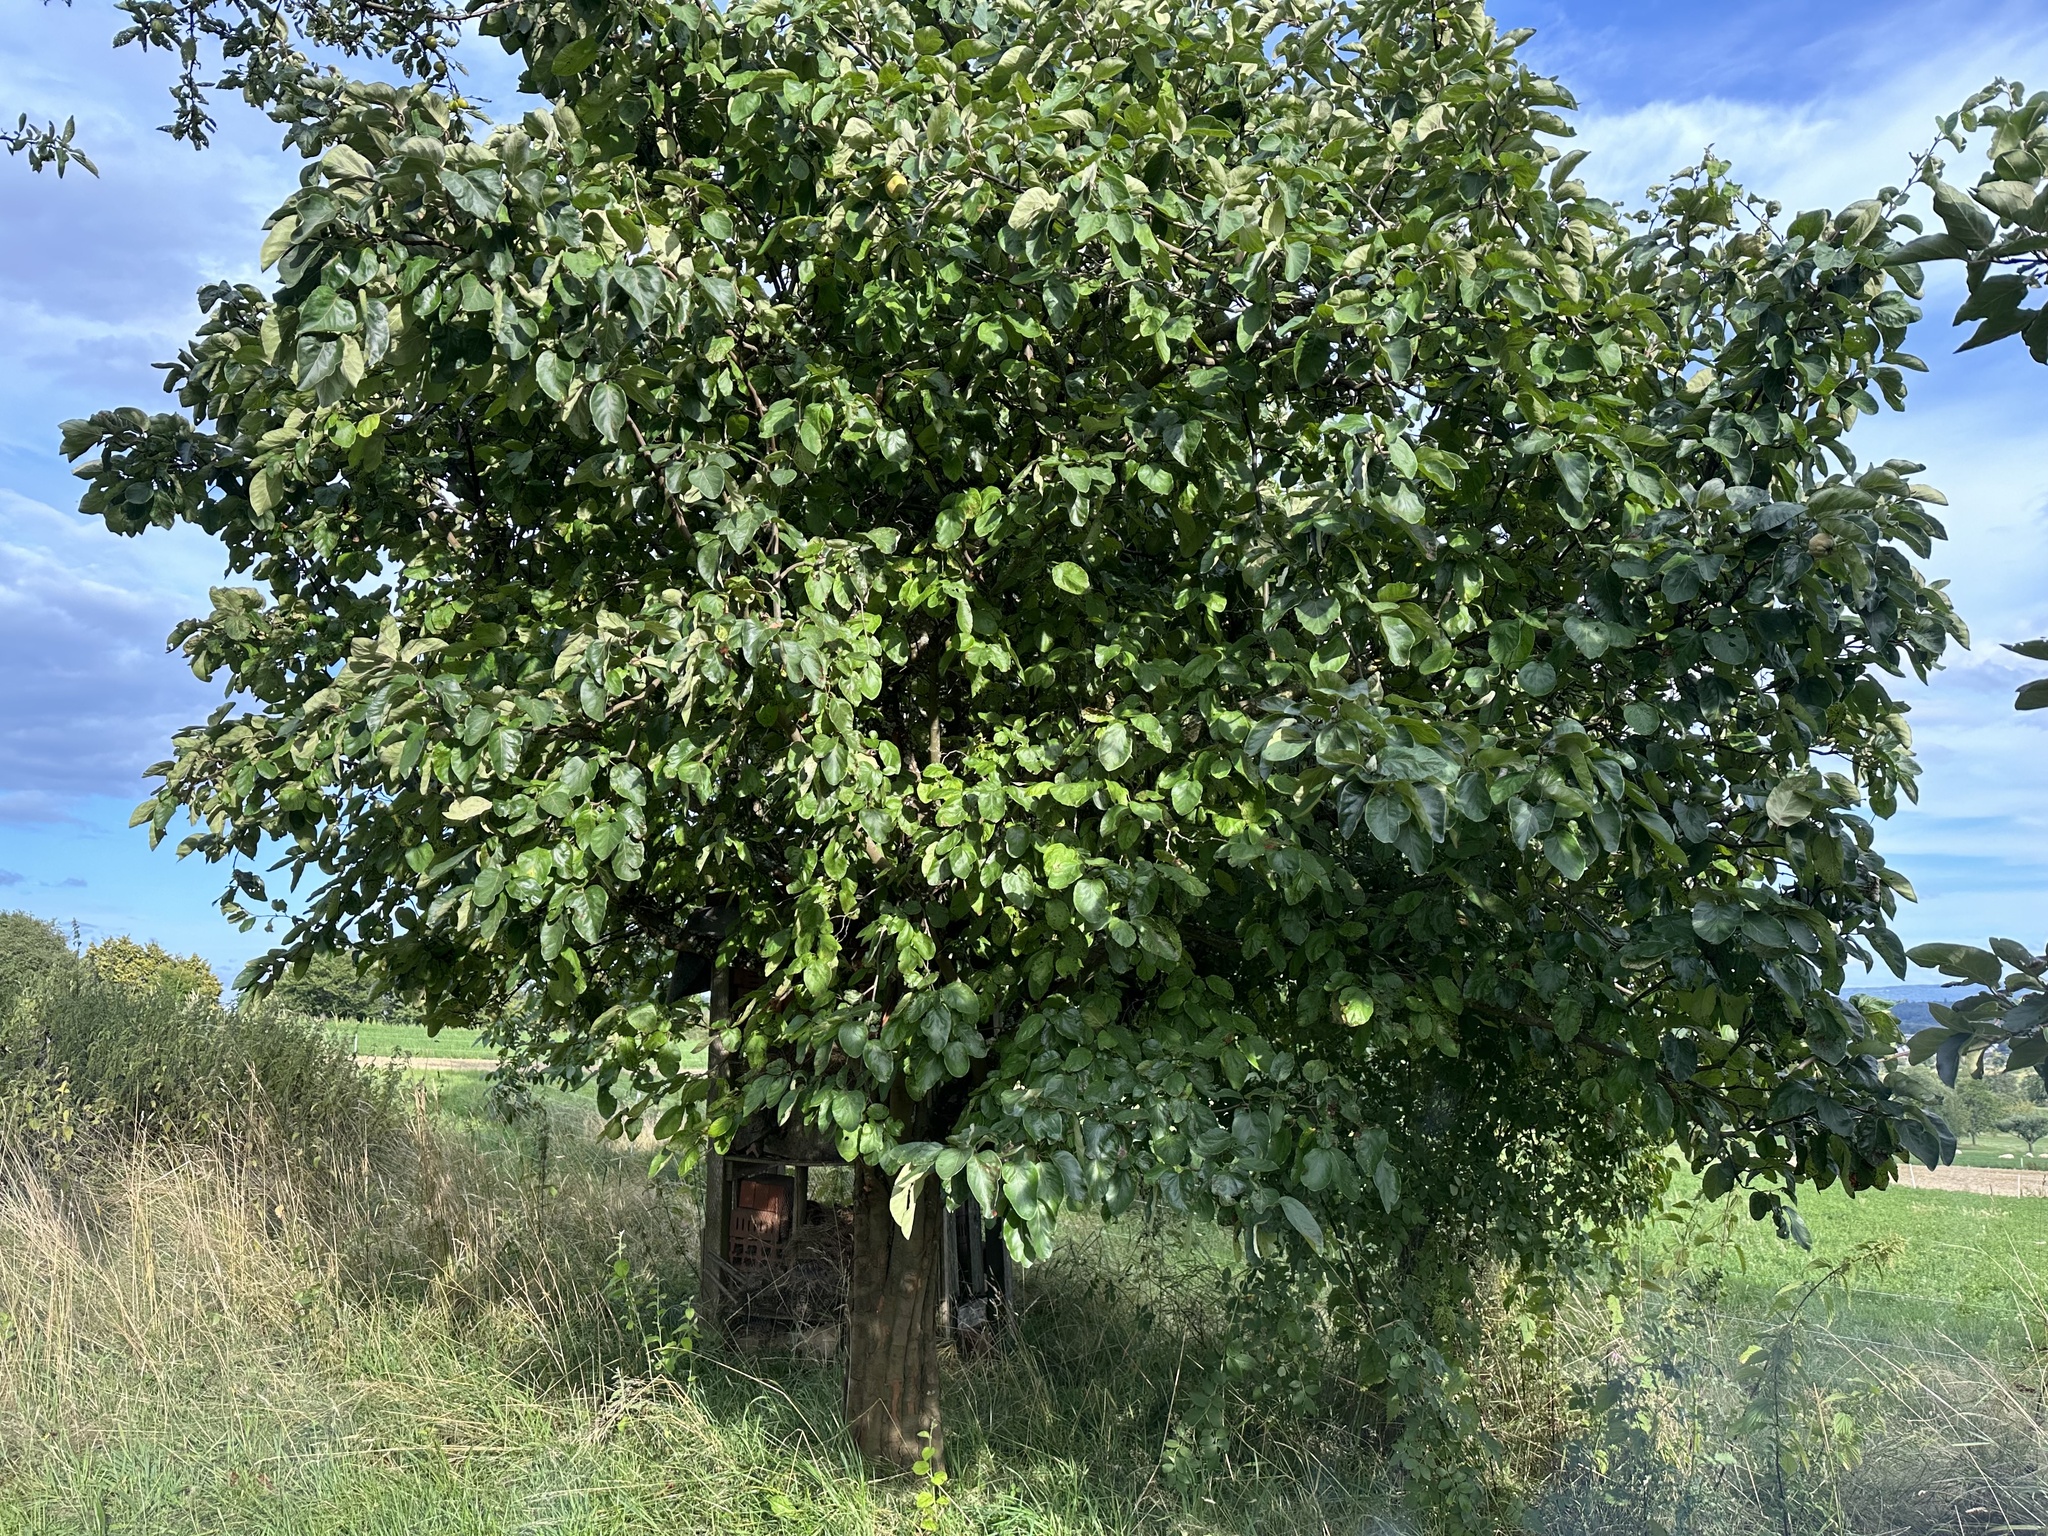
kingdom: Plantae
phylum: Tracheophyta
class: Magnoliopsida
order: Rosales
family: Rosaceae
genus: Cydonia
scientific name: Cydonia oblonga
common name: Quince
